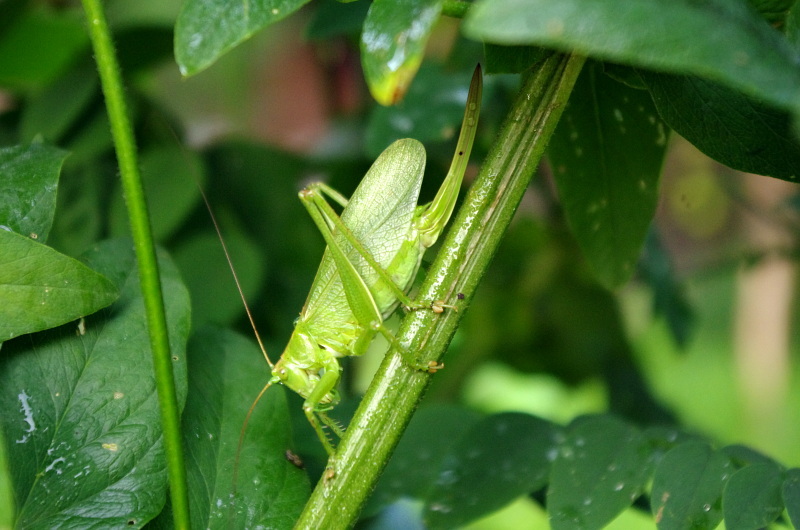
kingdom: Animalia
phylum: Arthropoda
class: Insecta
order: Orthoptera
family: Tettigoniidae
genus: Tettigonia
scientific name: Tettigonia cantans
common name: Upland green bush-cricket
